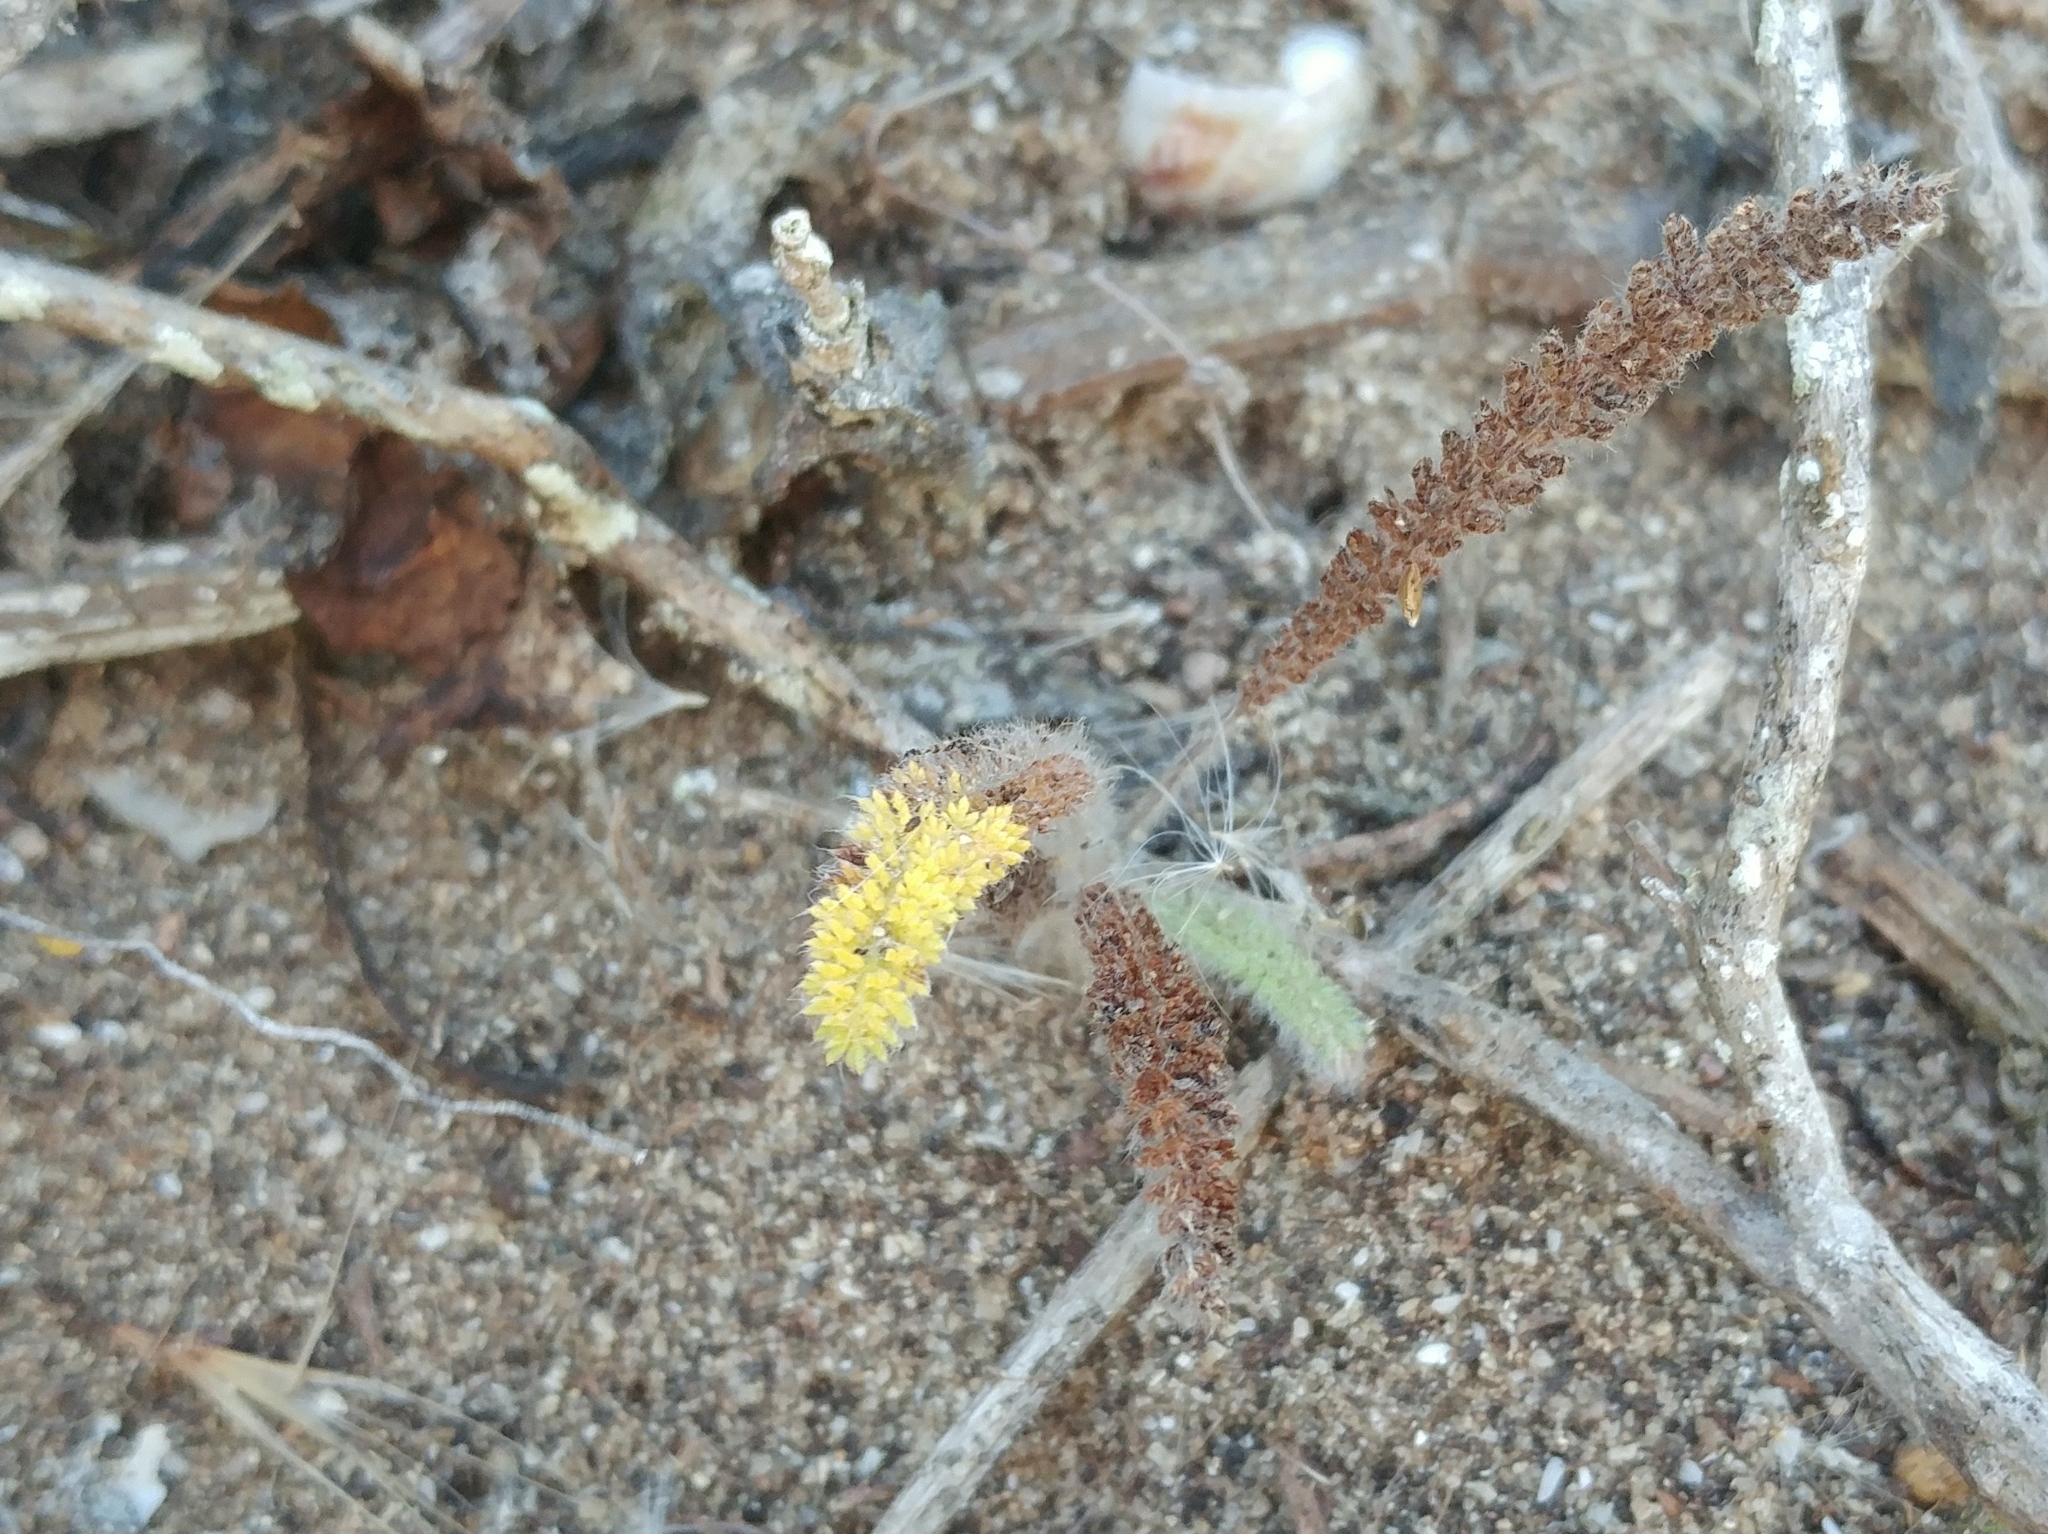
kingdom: Plantae
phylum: Tracheophyta
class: Magnoliopsida
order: Asterales
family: Asteraceae
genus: Achillea
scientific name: Achillea millefolium
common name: Yarrow
